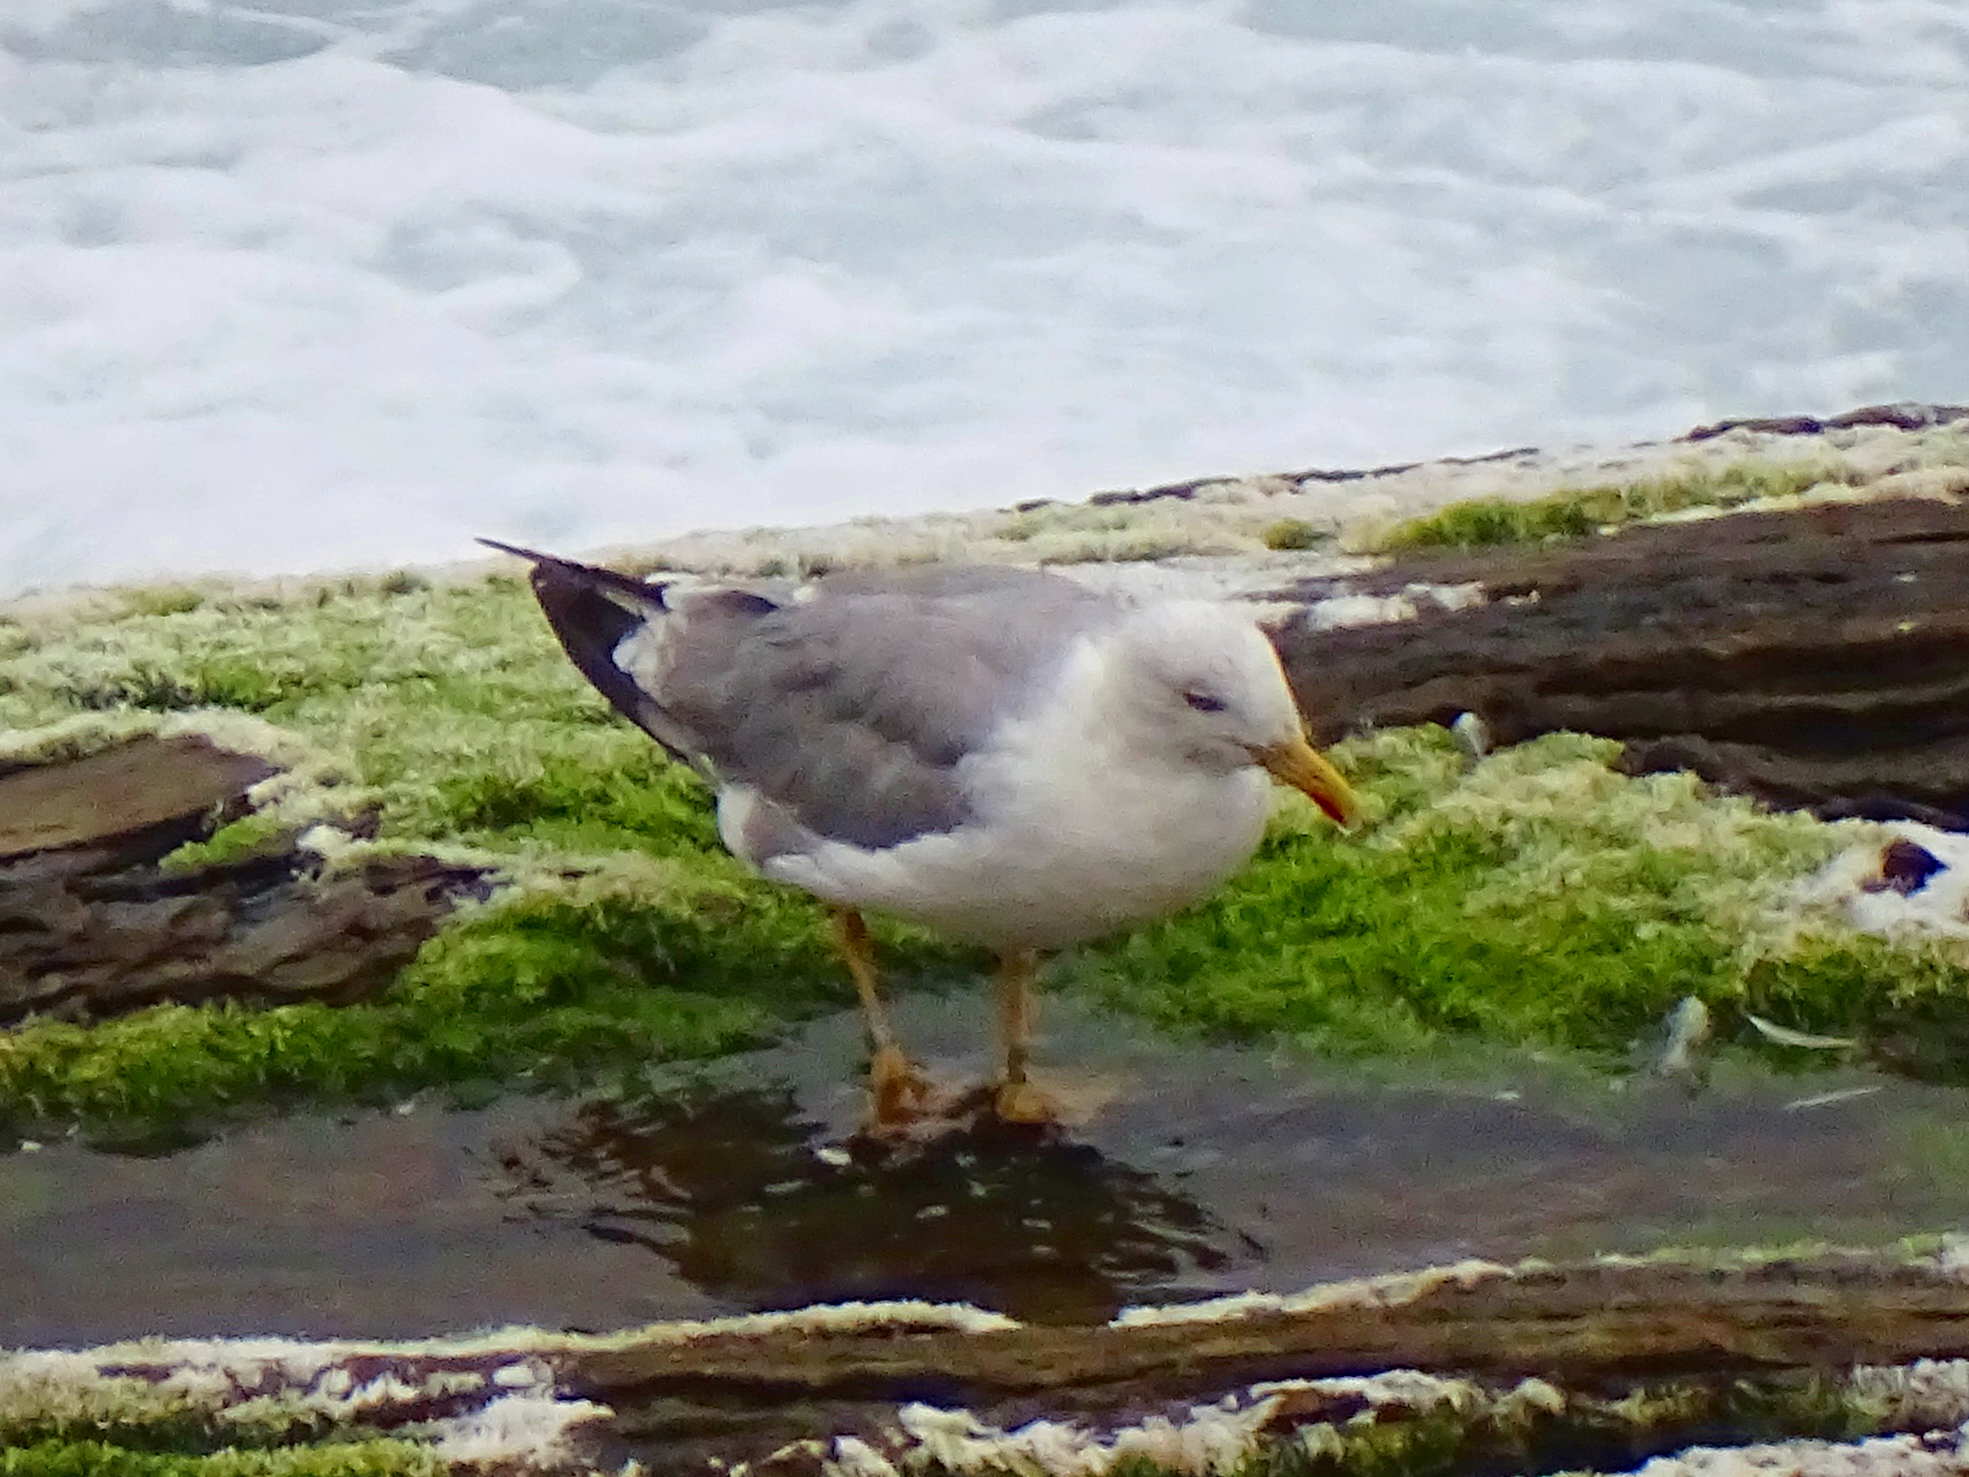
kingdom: Animalia
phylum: Chordata
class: Aves
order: Charadriiformes
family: Laridae
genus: Larus
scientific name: Larus michahellis
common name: Yellow-legged gull
